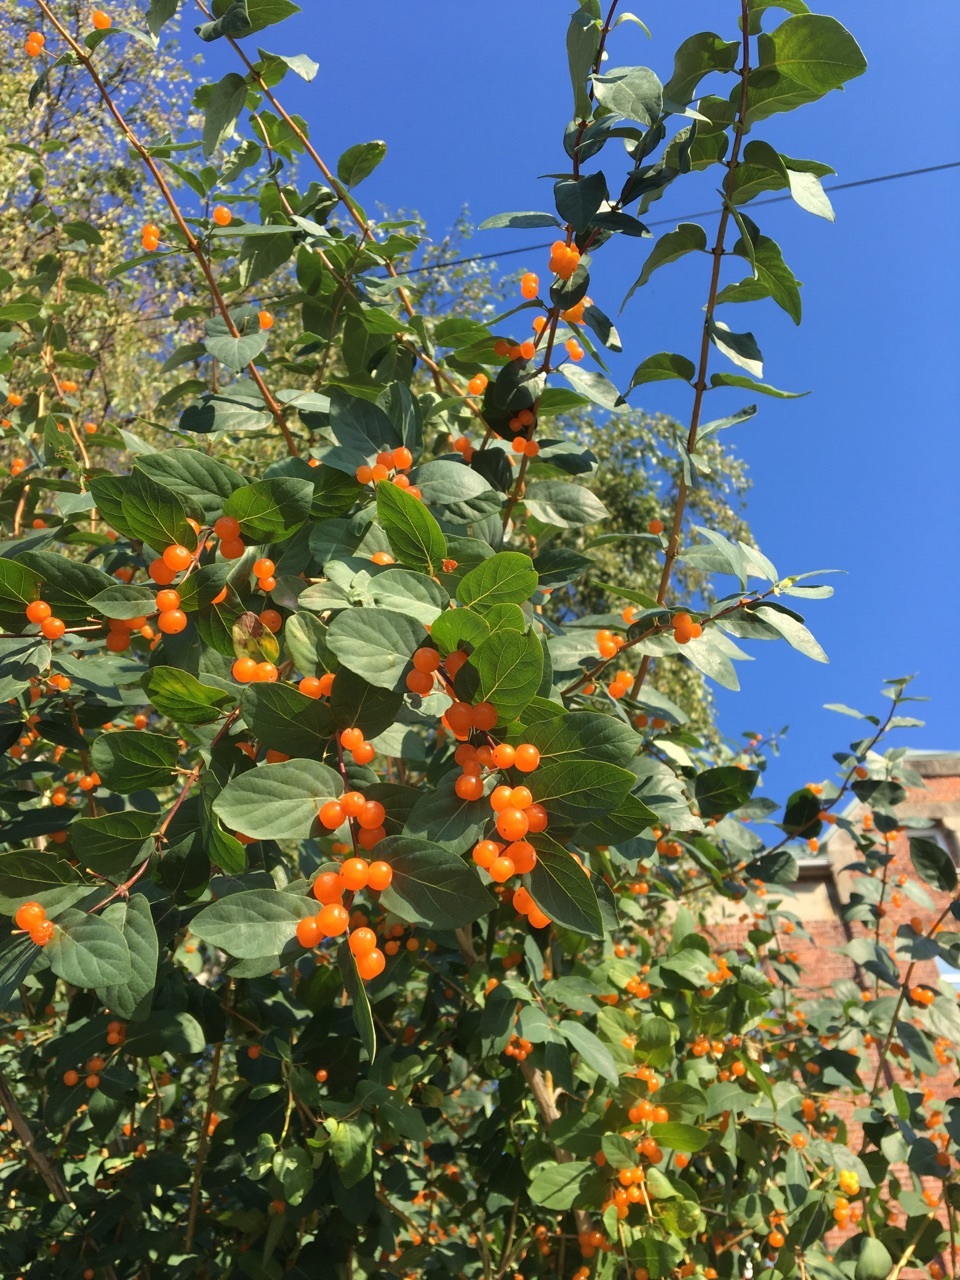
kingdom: Plantae
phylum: Tracheophyta
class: Magnoliopsida
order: Dipsacales
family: Caprifoliaceae
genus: Lonicera
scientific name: Lonicera tatarica
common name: Tatarian honeysuckle
